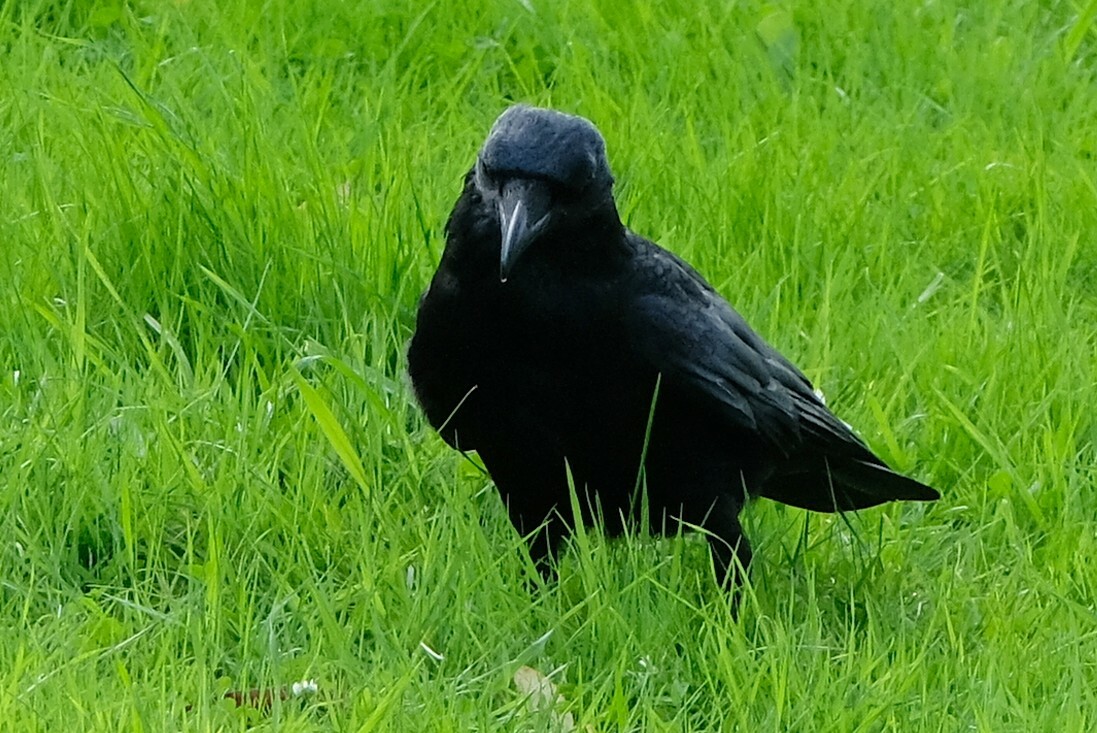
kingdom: Animalia
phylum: Chordata
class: Aves
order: Passeriformes
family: Corvidae
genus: Corvus
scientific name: Corvus corone
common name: Carrion crow
